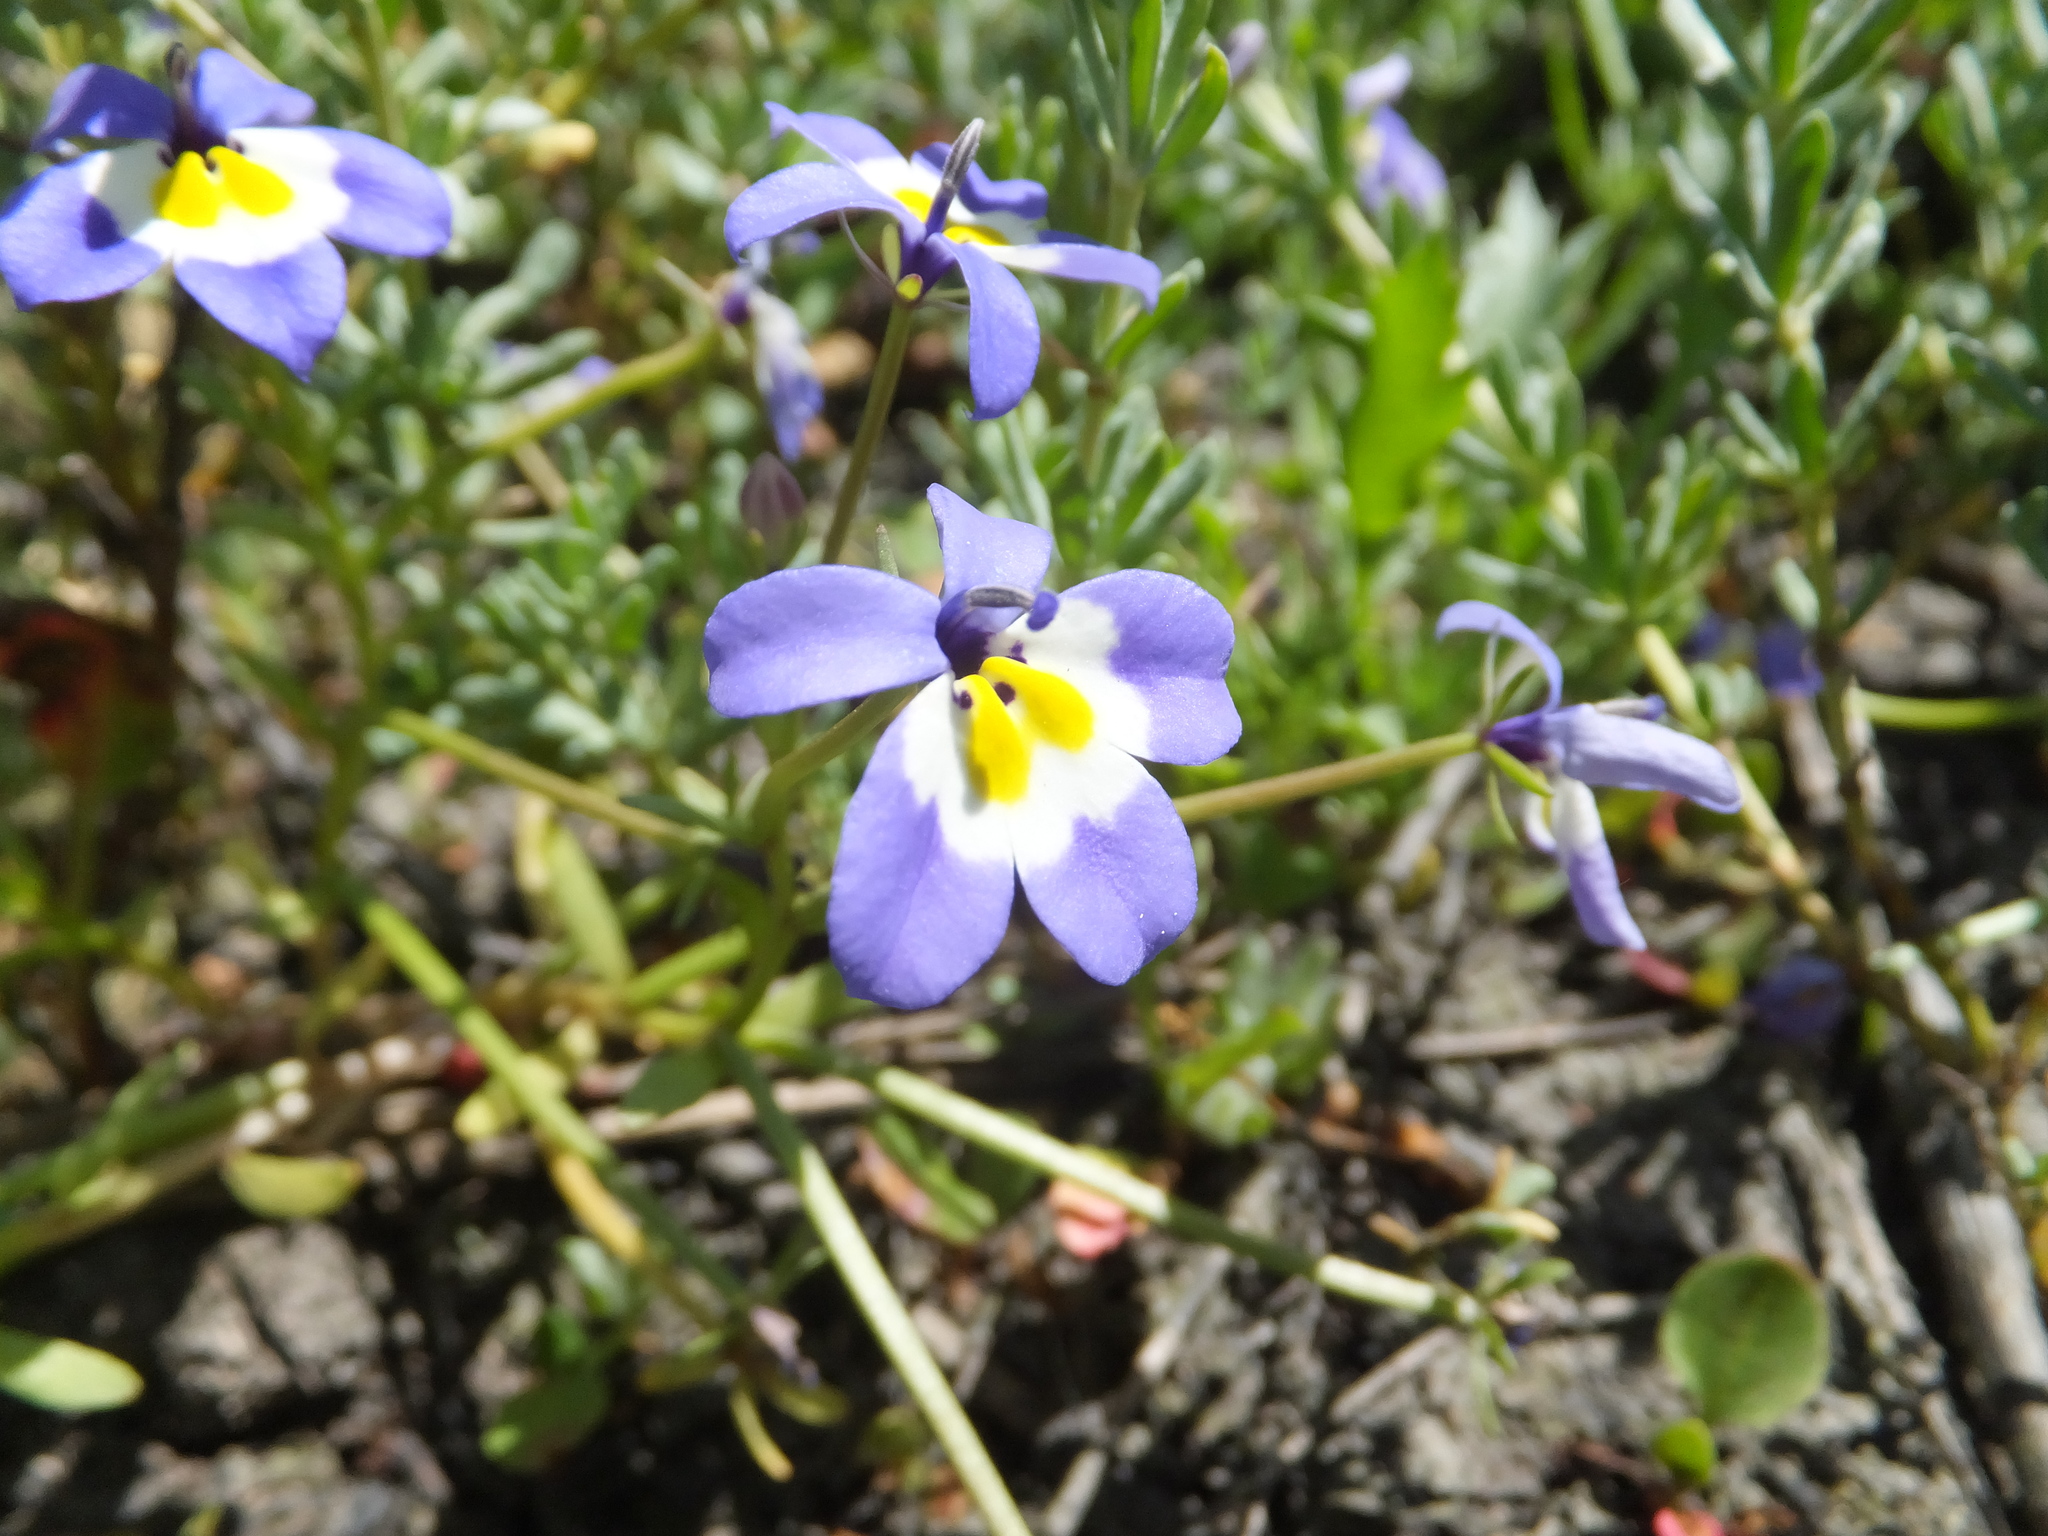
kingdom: Plantae
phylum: Tracheophyta
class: Magnoliopsida
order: Asterales
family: Campanulaceae
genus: Downingia
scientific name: Downingia pulchella
